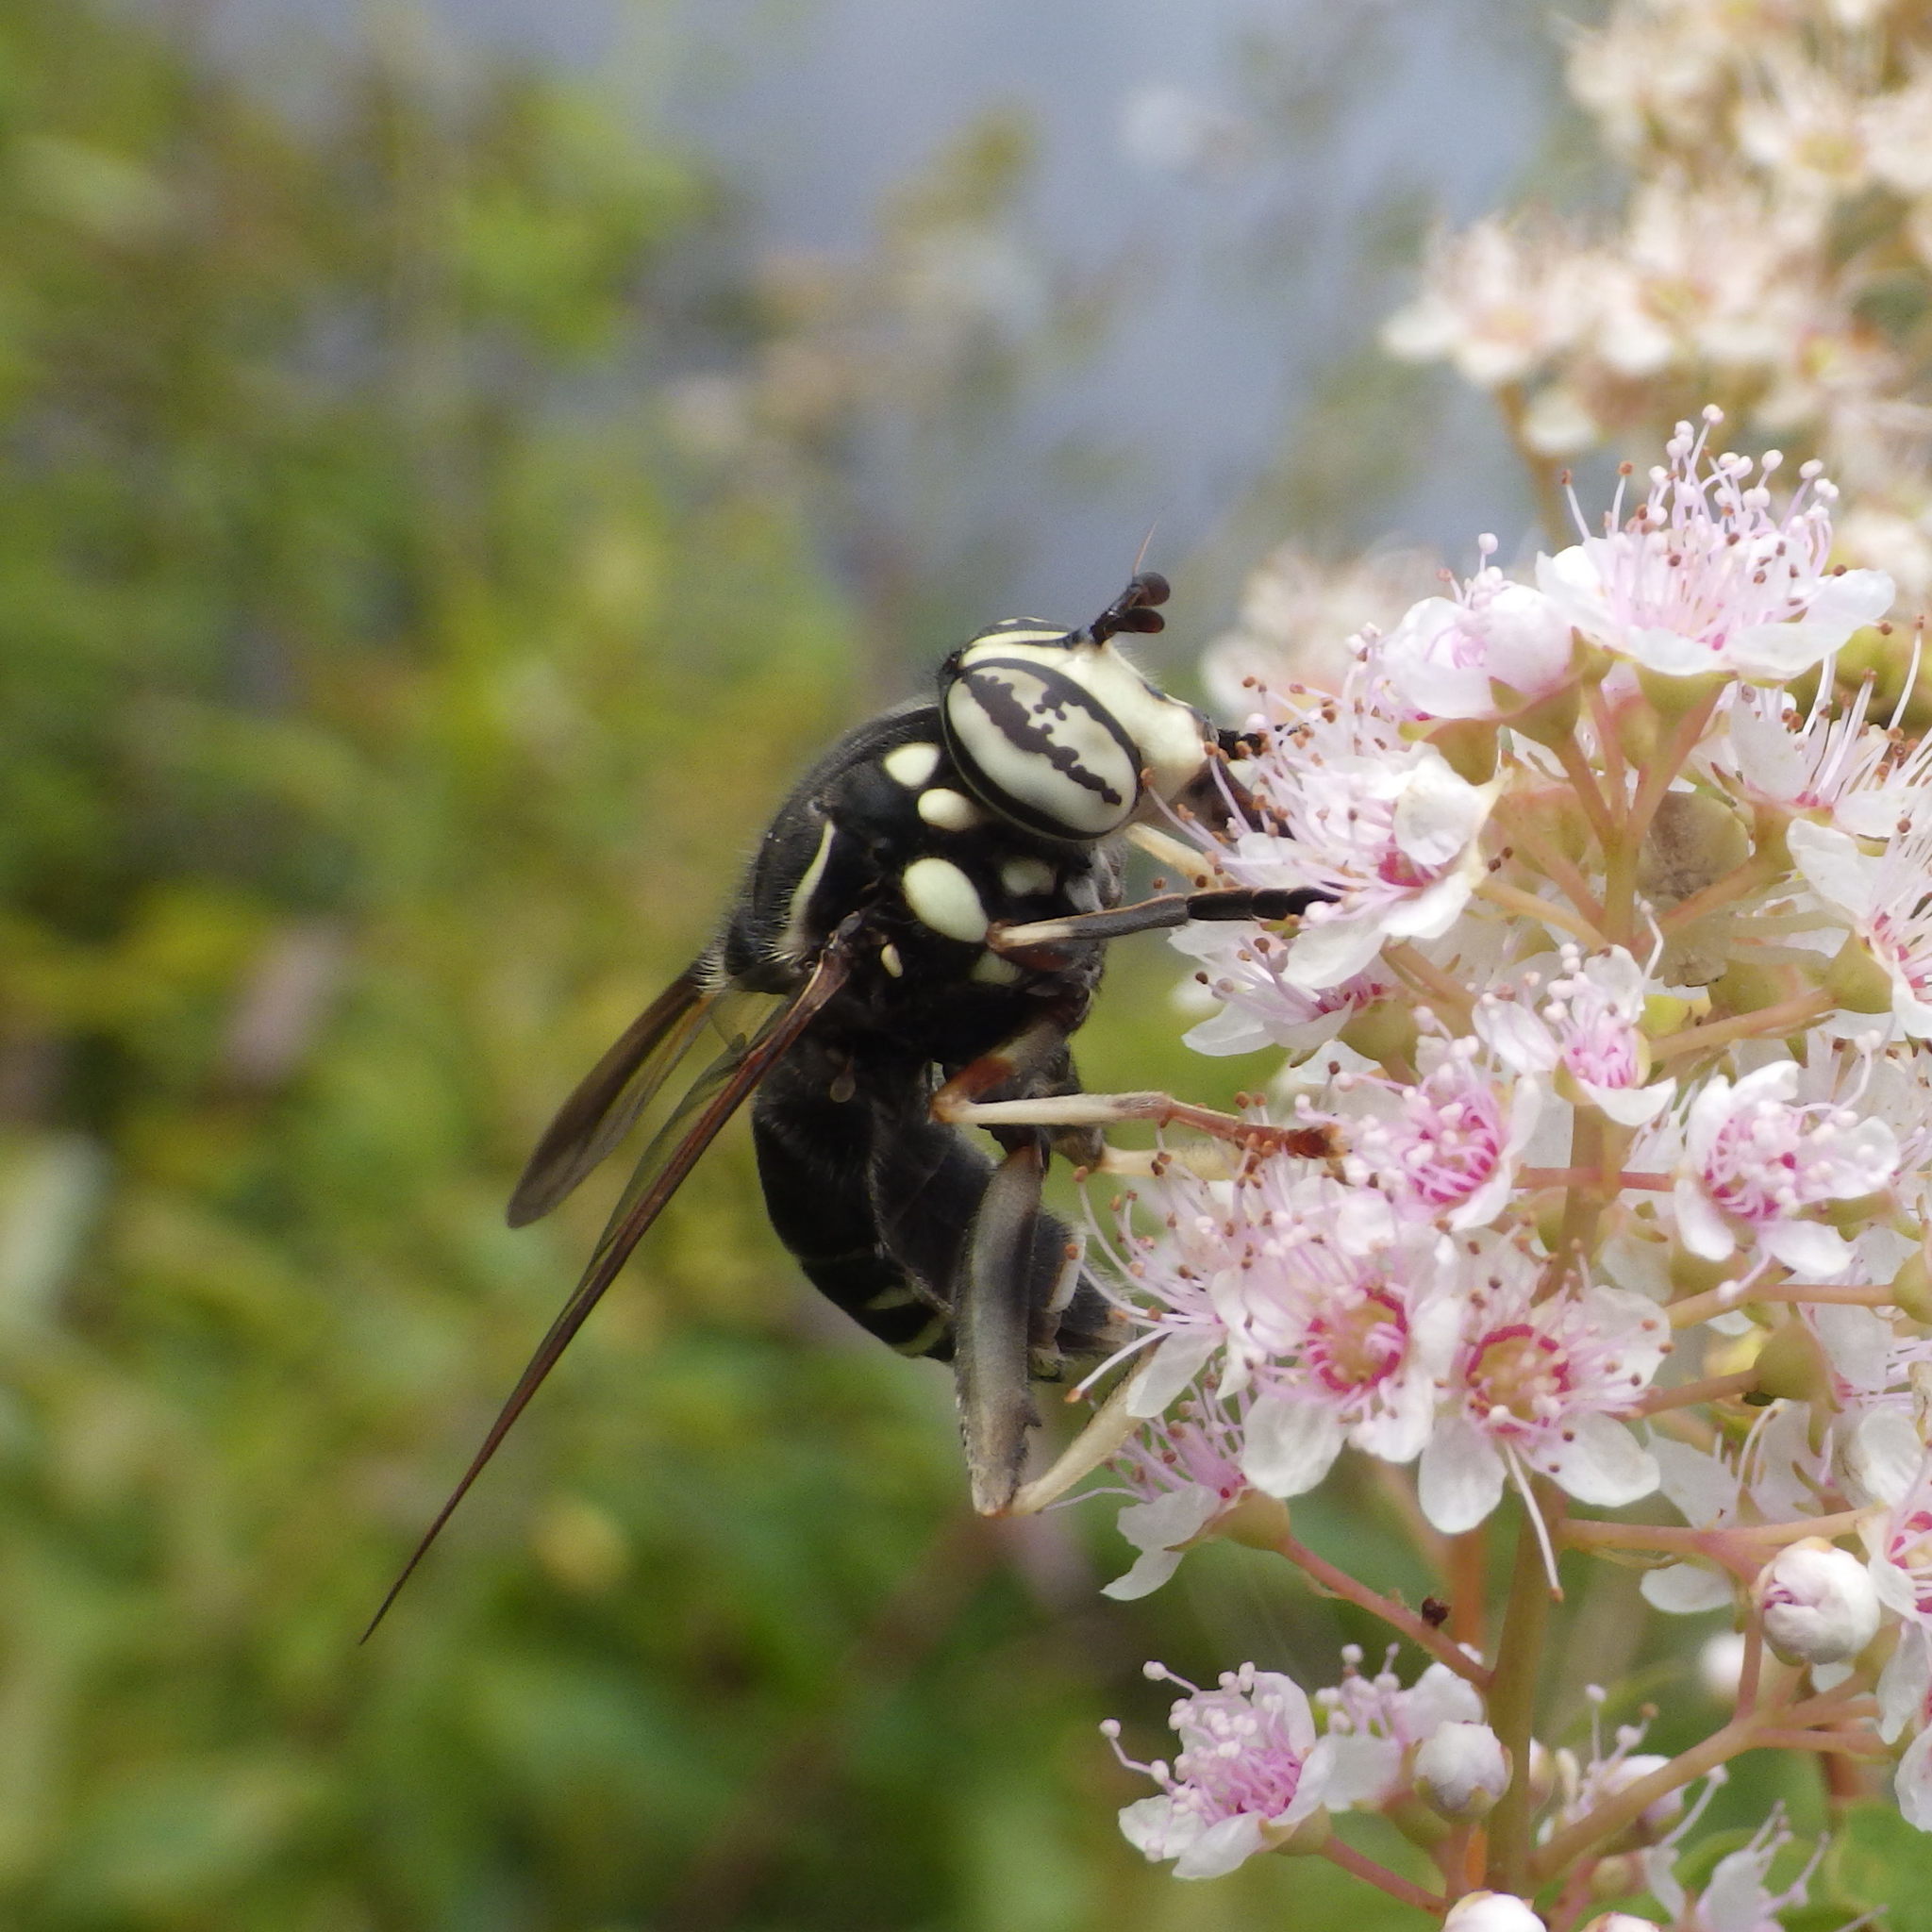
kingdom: Animalia
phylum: Arthropoda
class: Insecta
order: Diptera
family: Syrphidae
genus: Spilomyia
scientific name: Spilomyia fusca
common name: Bald-faced hornet fly
